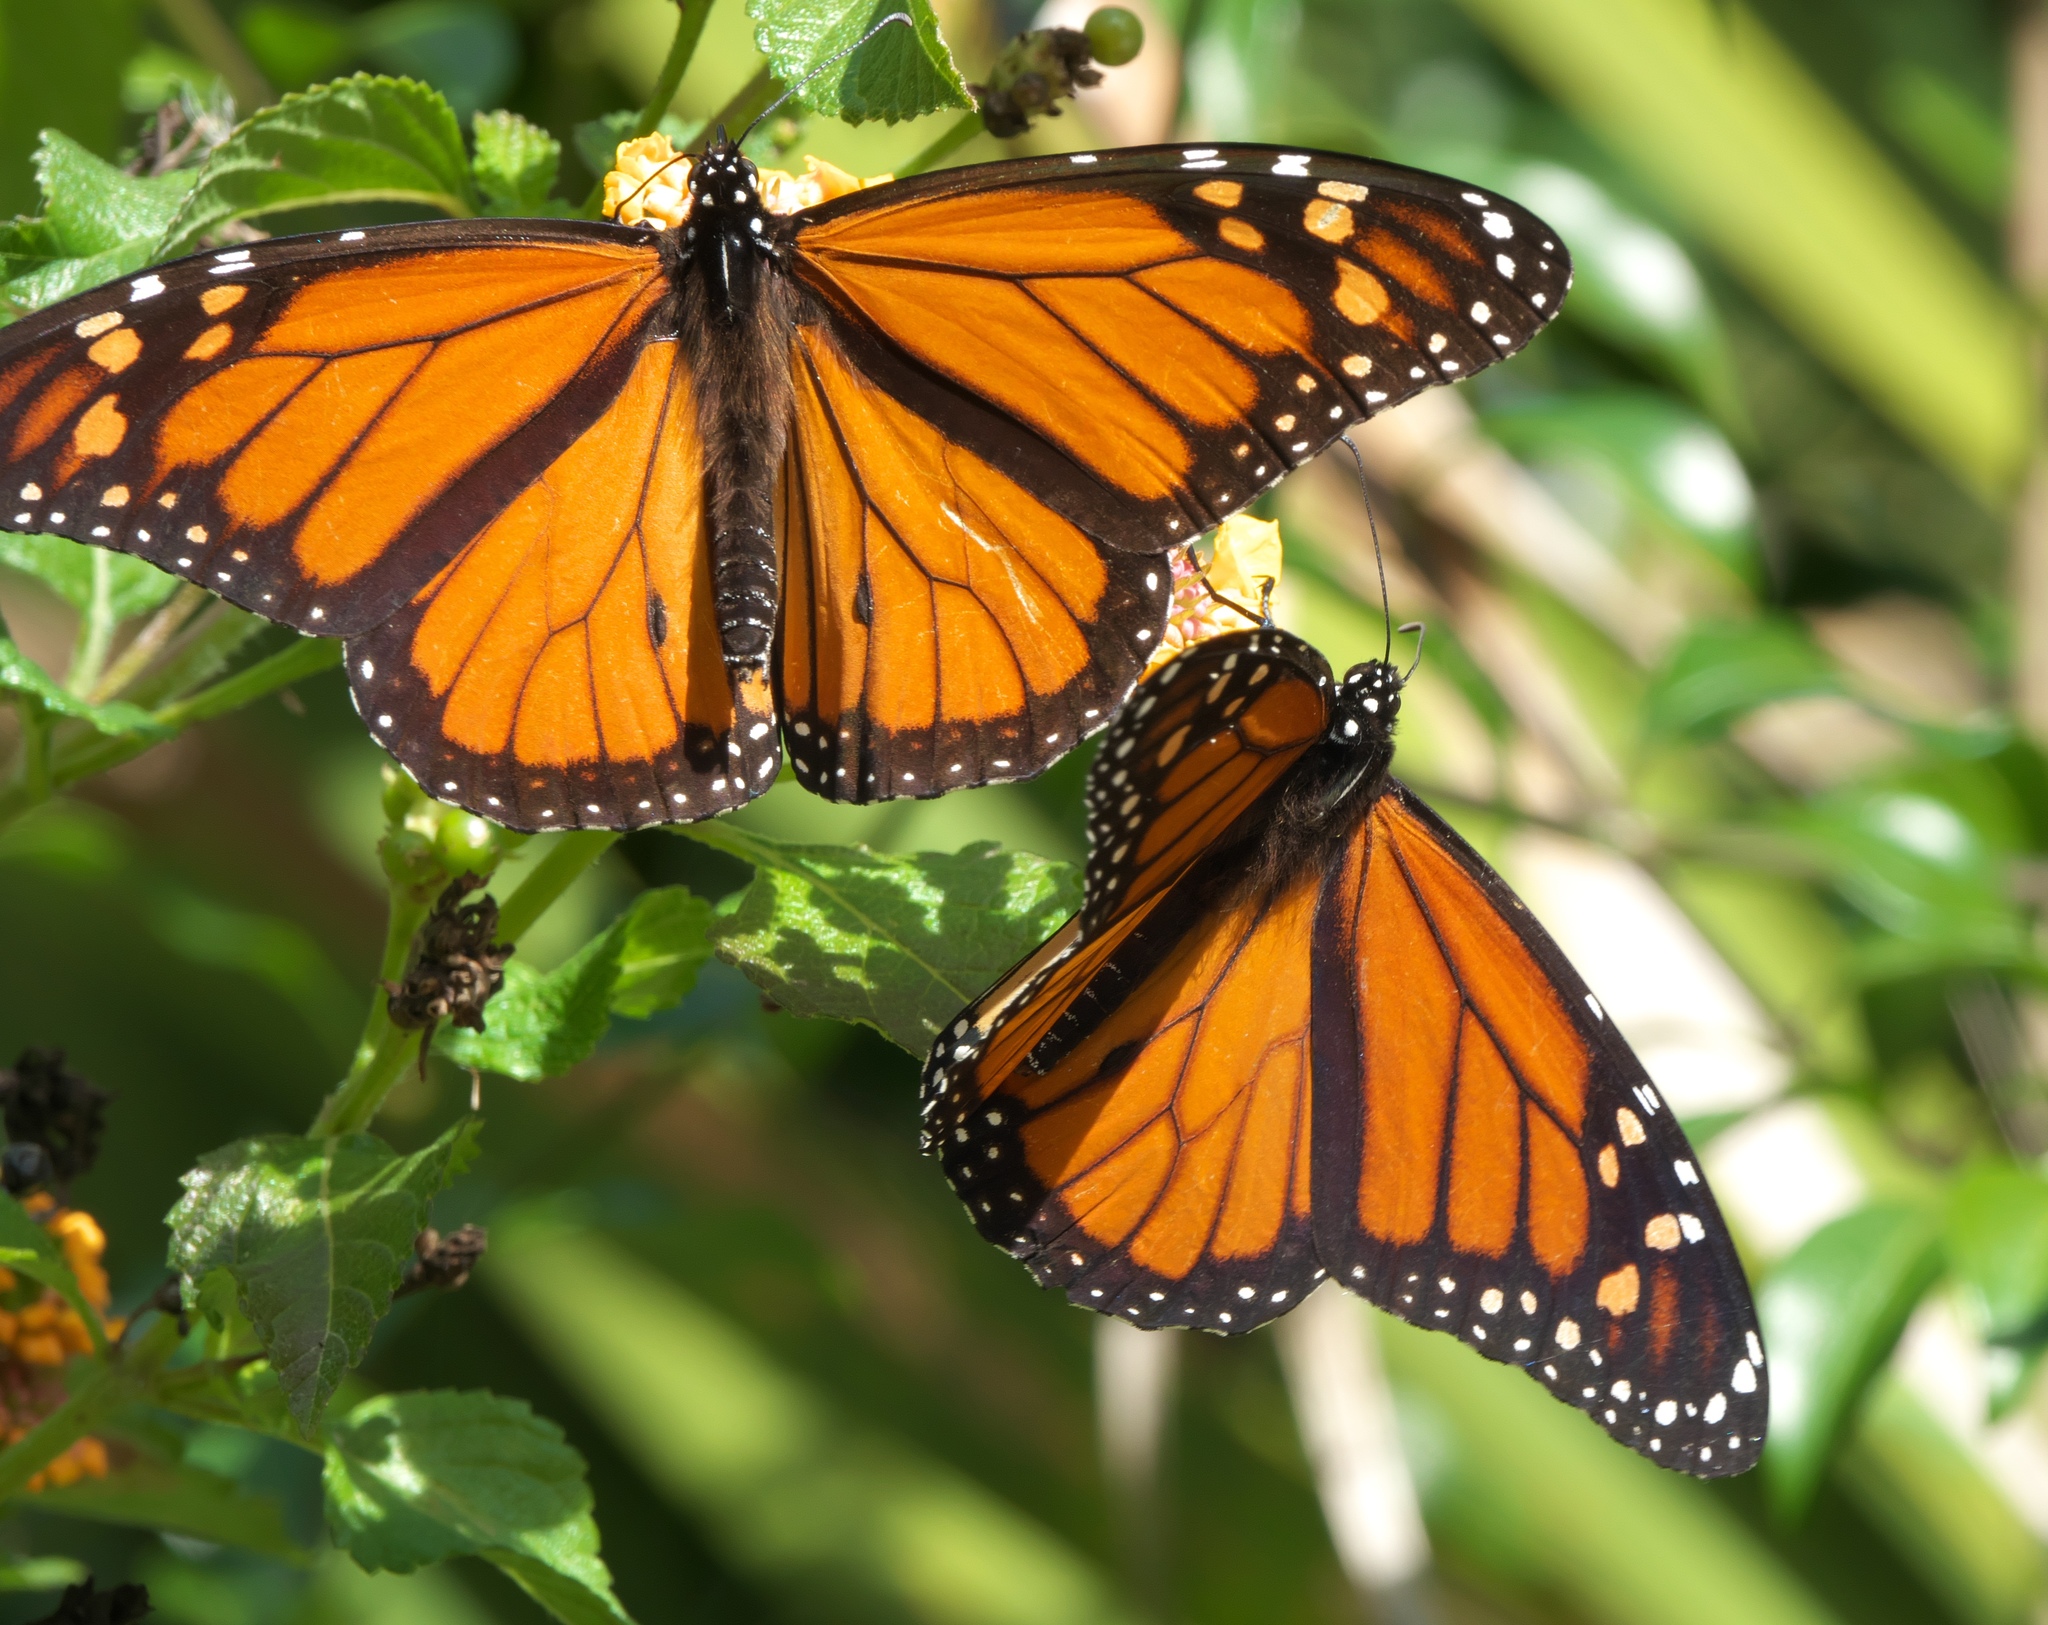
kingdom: Animalia
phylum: Arthropoda
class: Insecta
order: Lepidoptera
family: Nymphalidae
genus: Danaus
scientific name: Danaus plexippus
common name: Monarch
